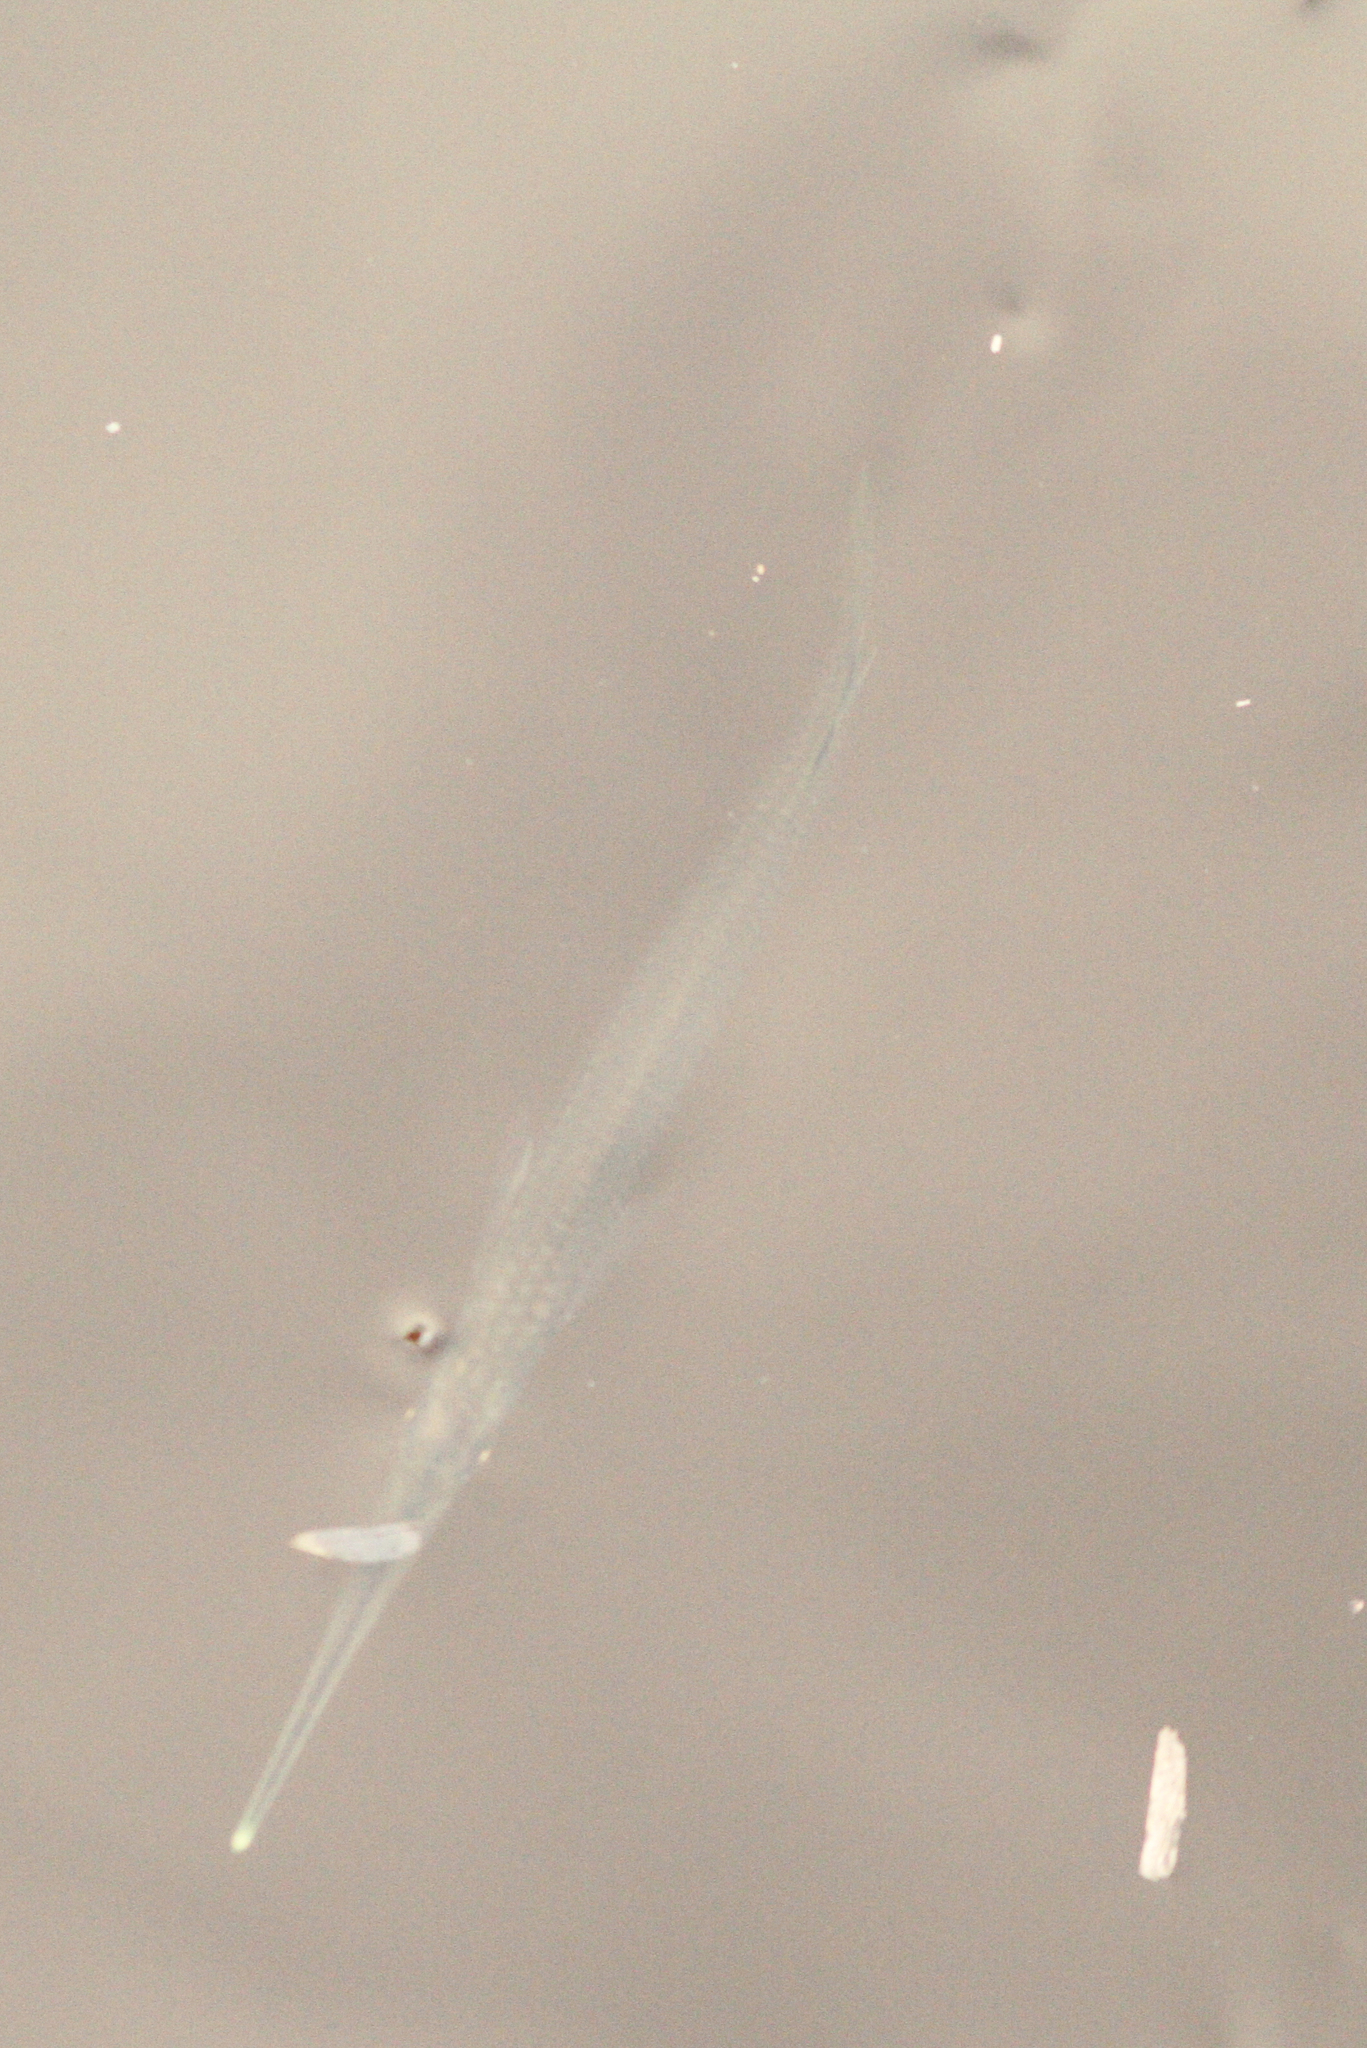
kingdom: Animalia
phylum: Chordata
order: Beloniformes
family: Zenarchopteridae
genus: Zenarchopterus
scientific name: Zenarchopterus buffonis
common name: Buffon's river-garfish
